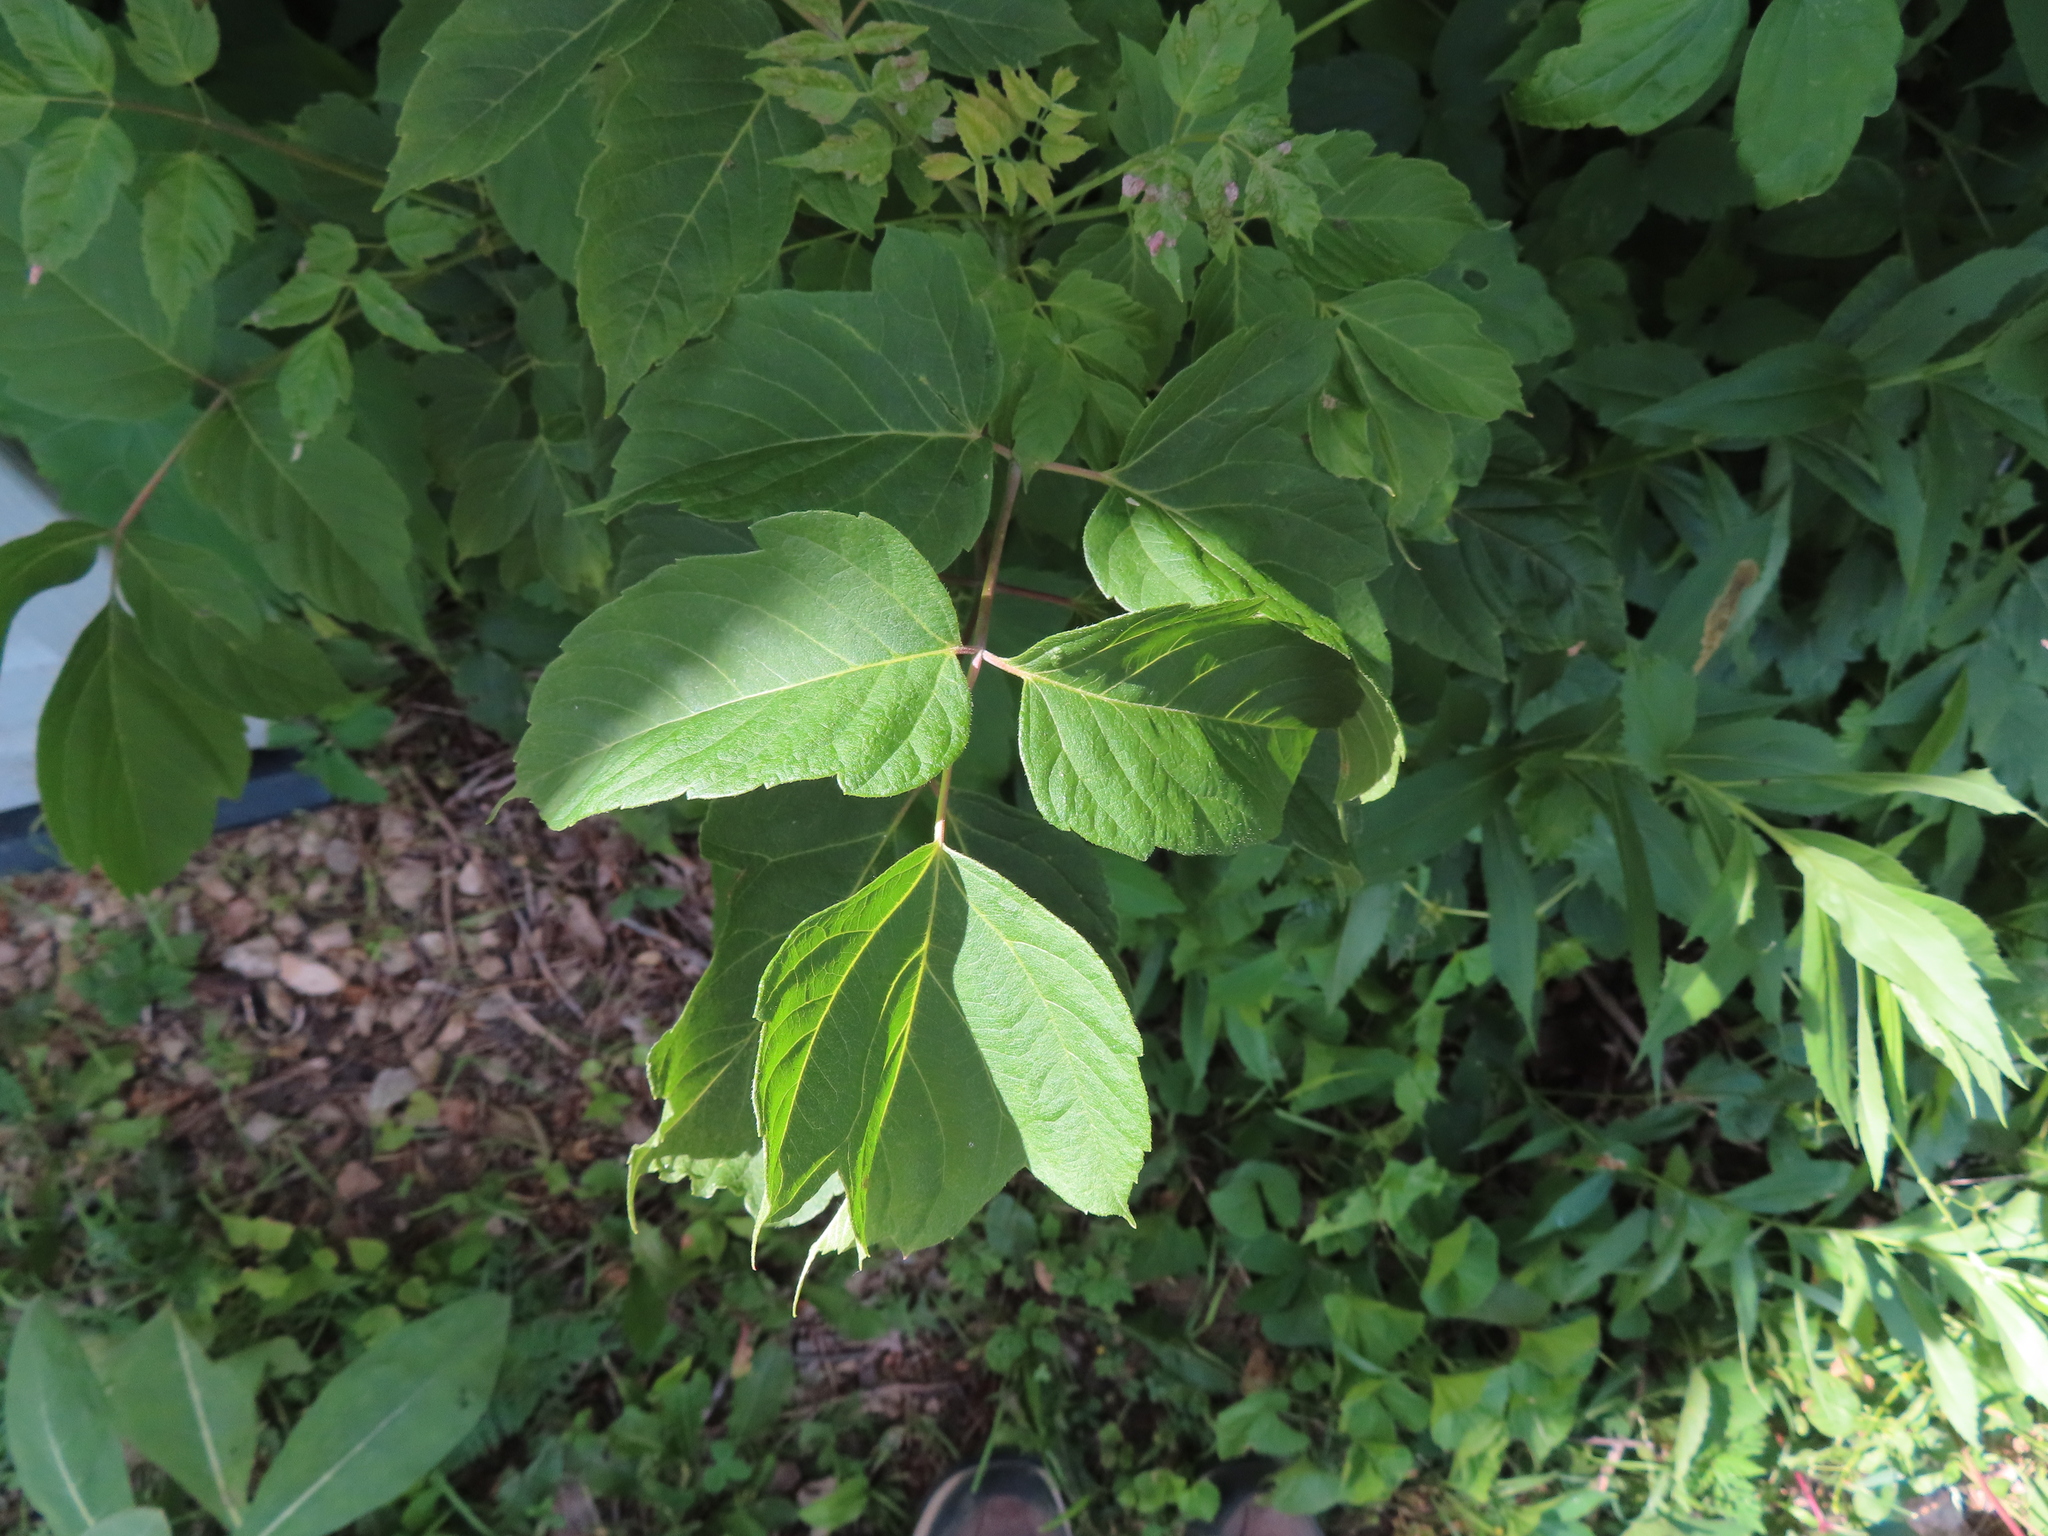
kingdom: Plantae
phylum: Tracheophyta
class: Magnoliopsida
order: Sapindales
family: Sapindaceae
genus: Acer
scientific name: Acer negundo
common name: Ashleaf maple
